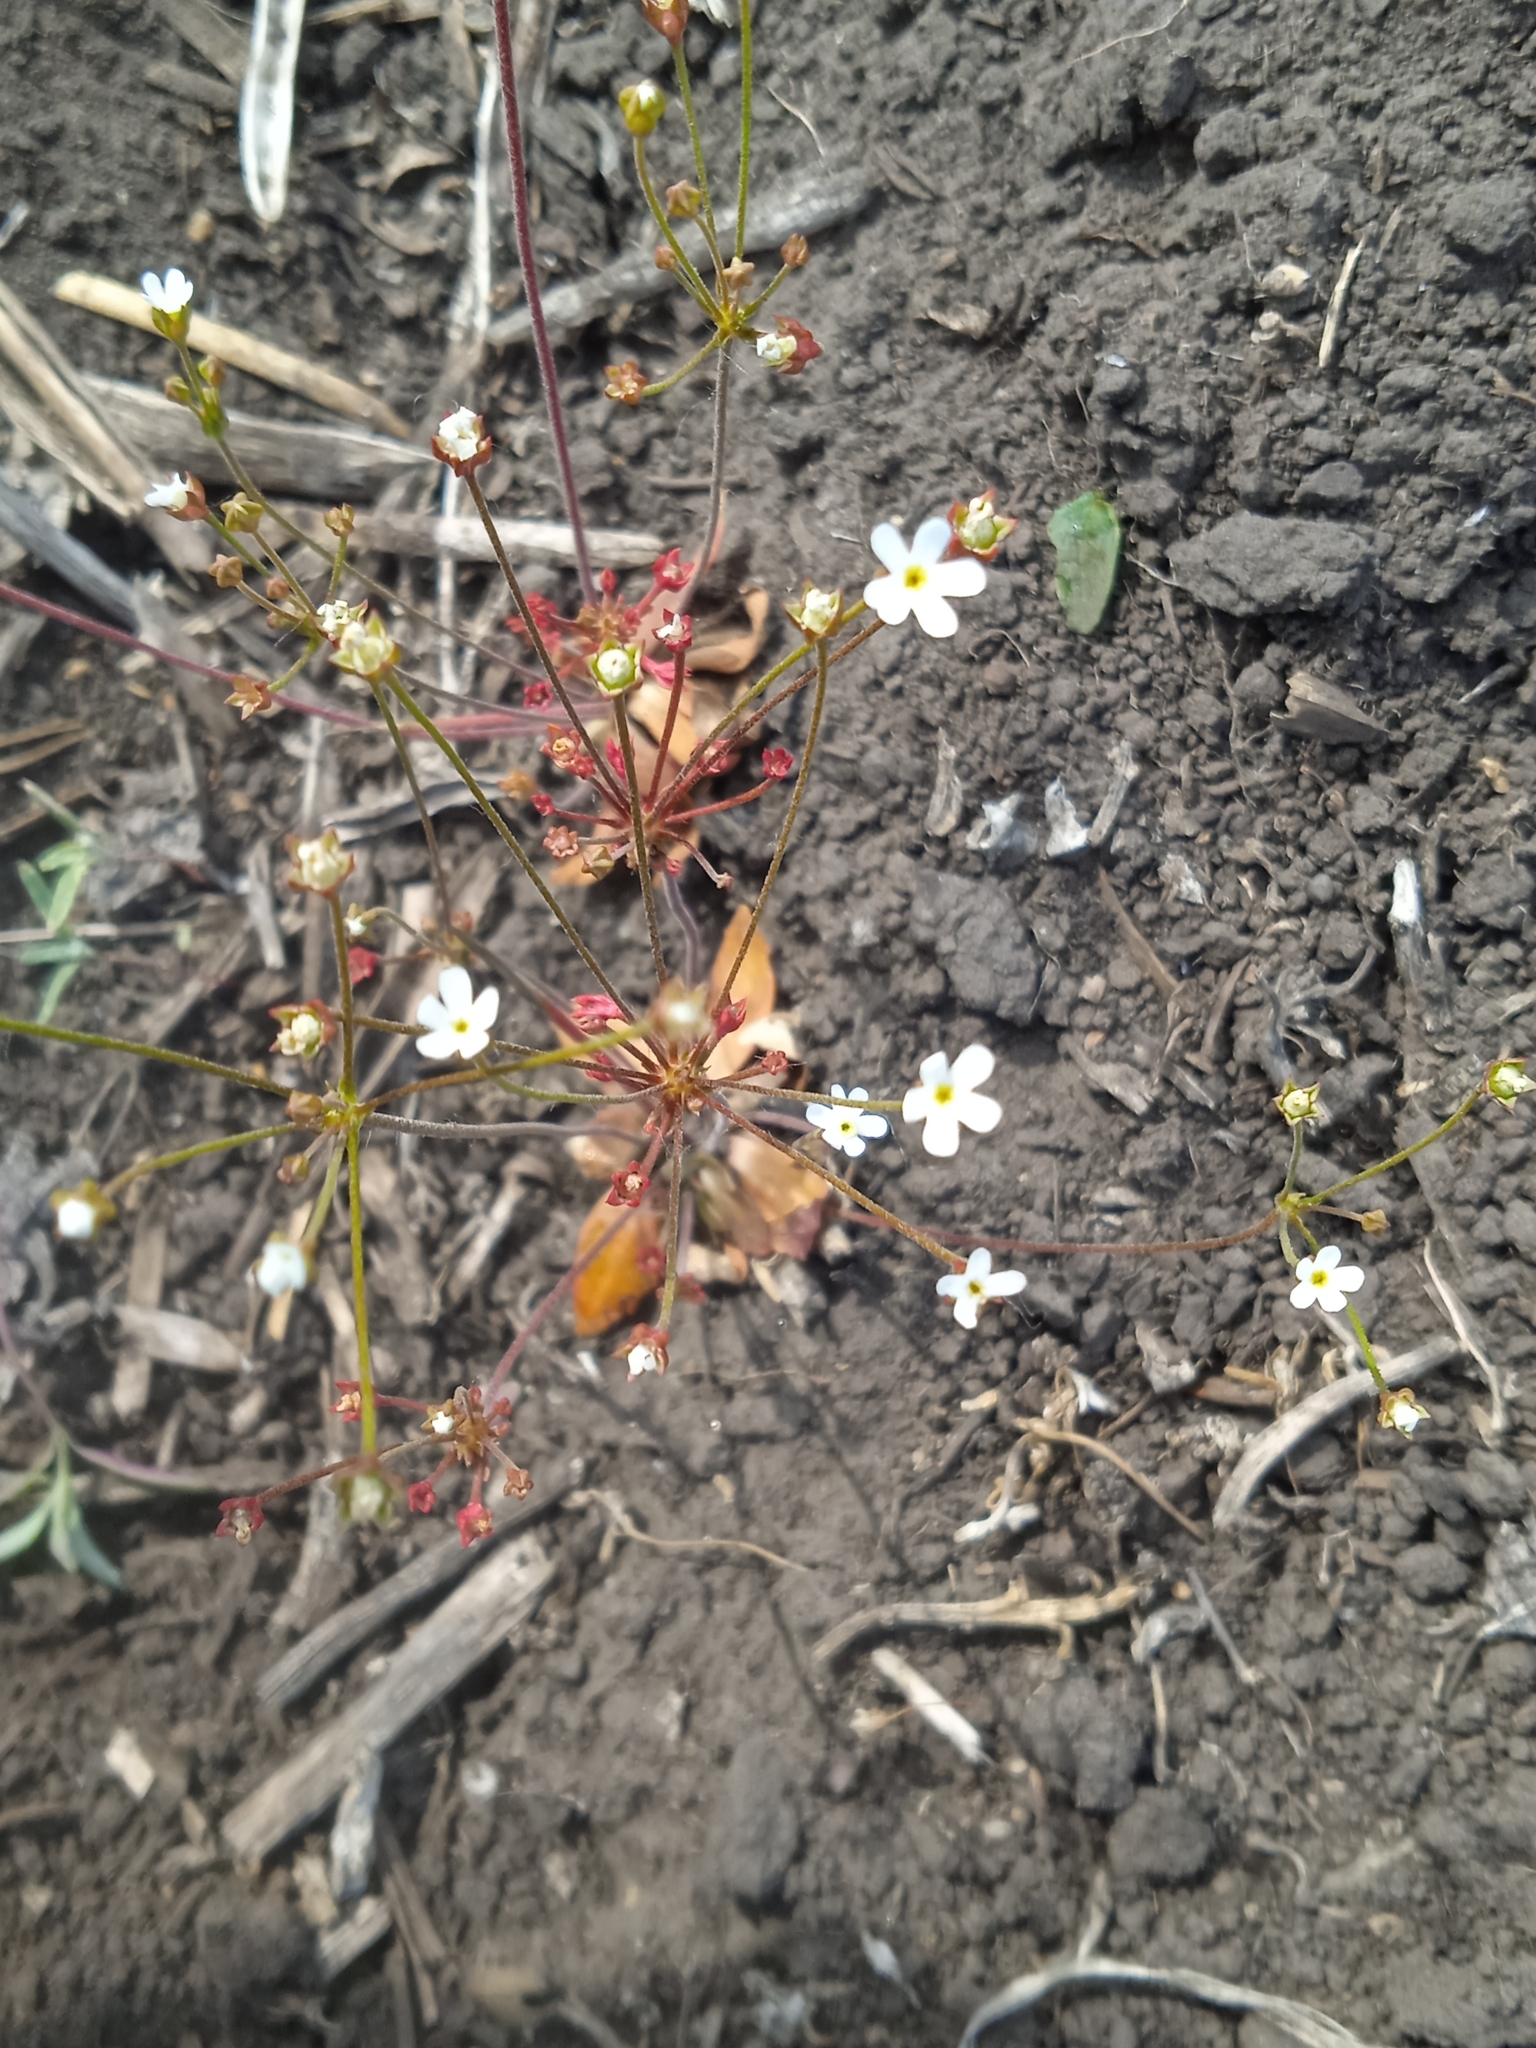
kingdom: Plantae
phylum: Tracheophyta
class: Magnoliopsida
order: Ericales
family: Primulaceae
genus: Androsace
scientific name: Androsace lactiflora
